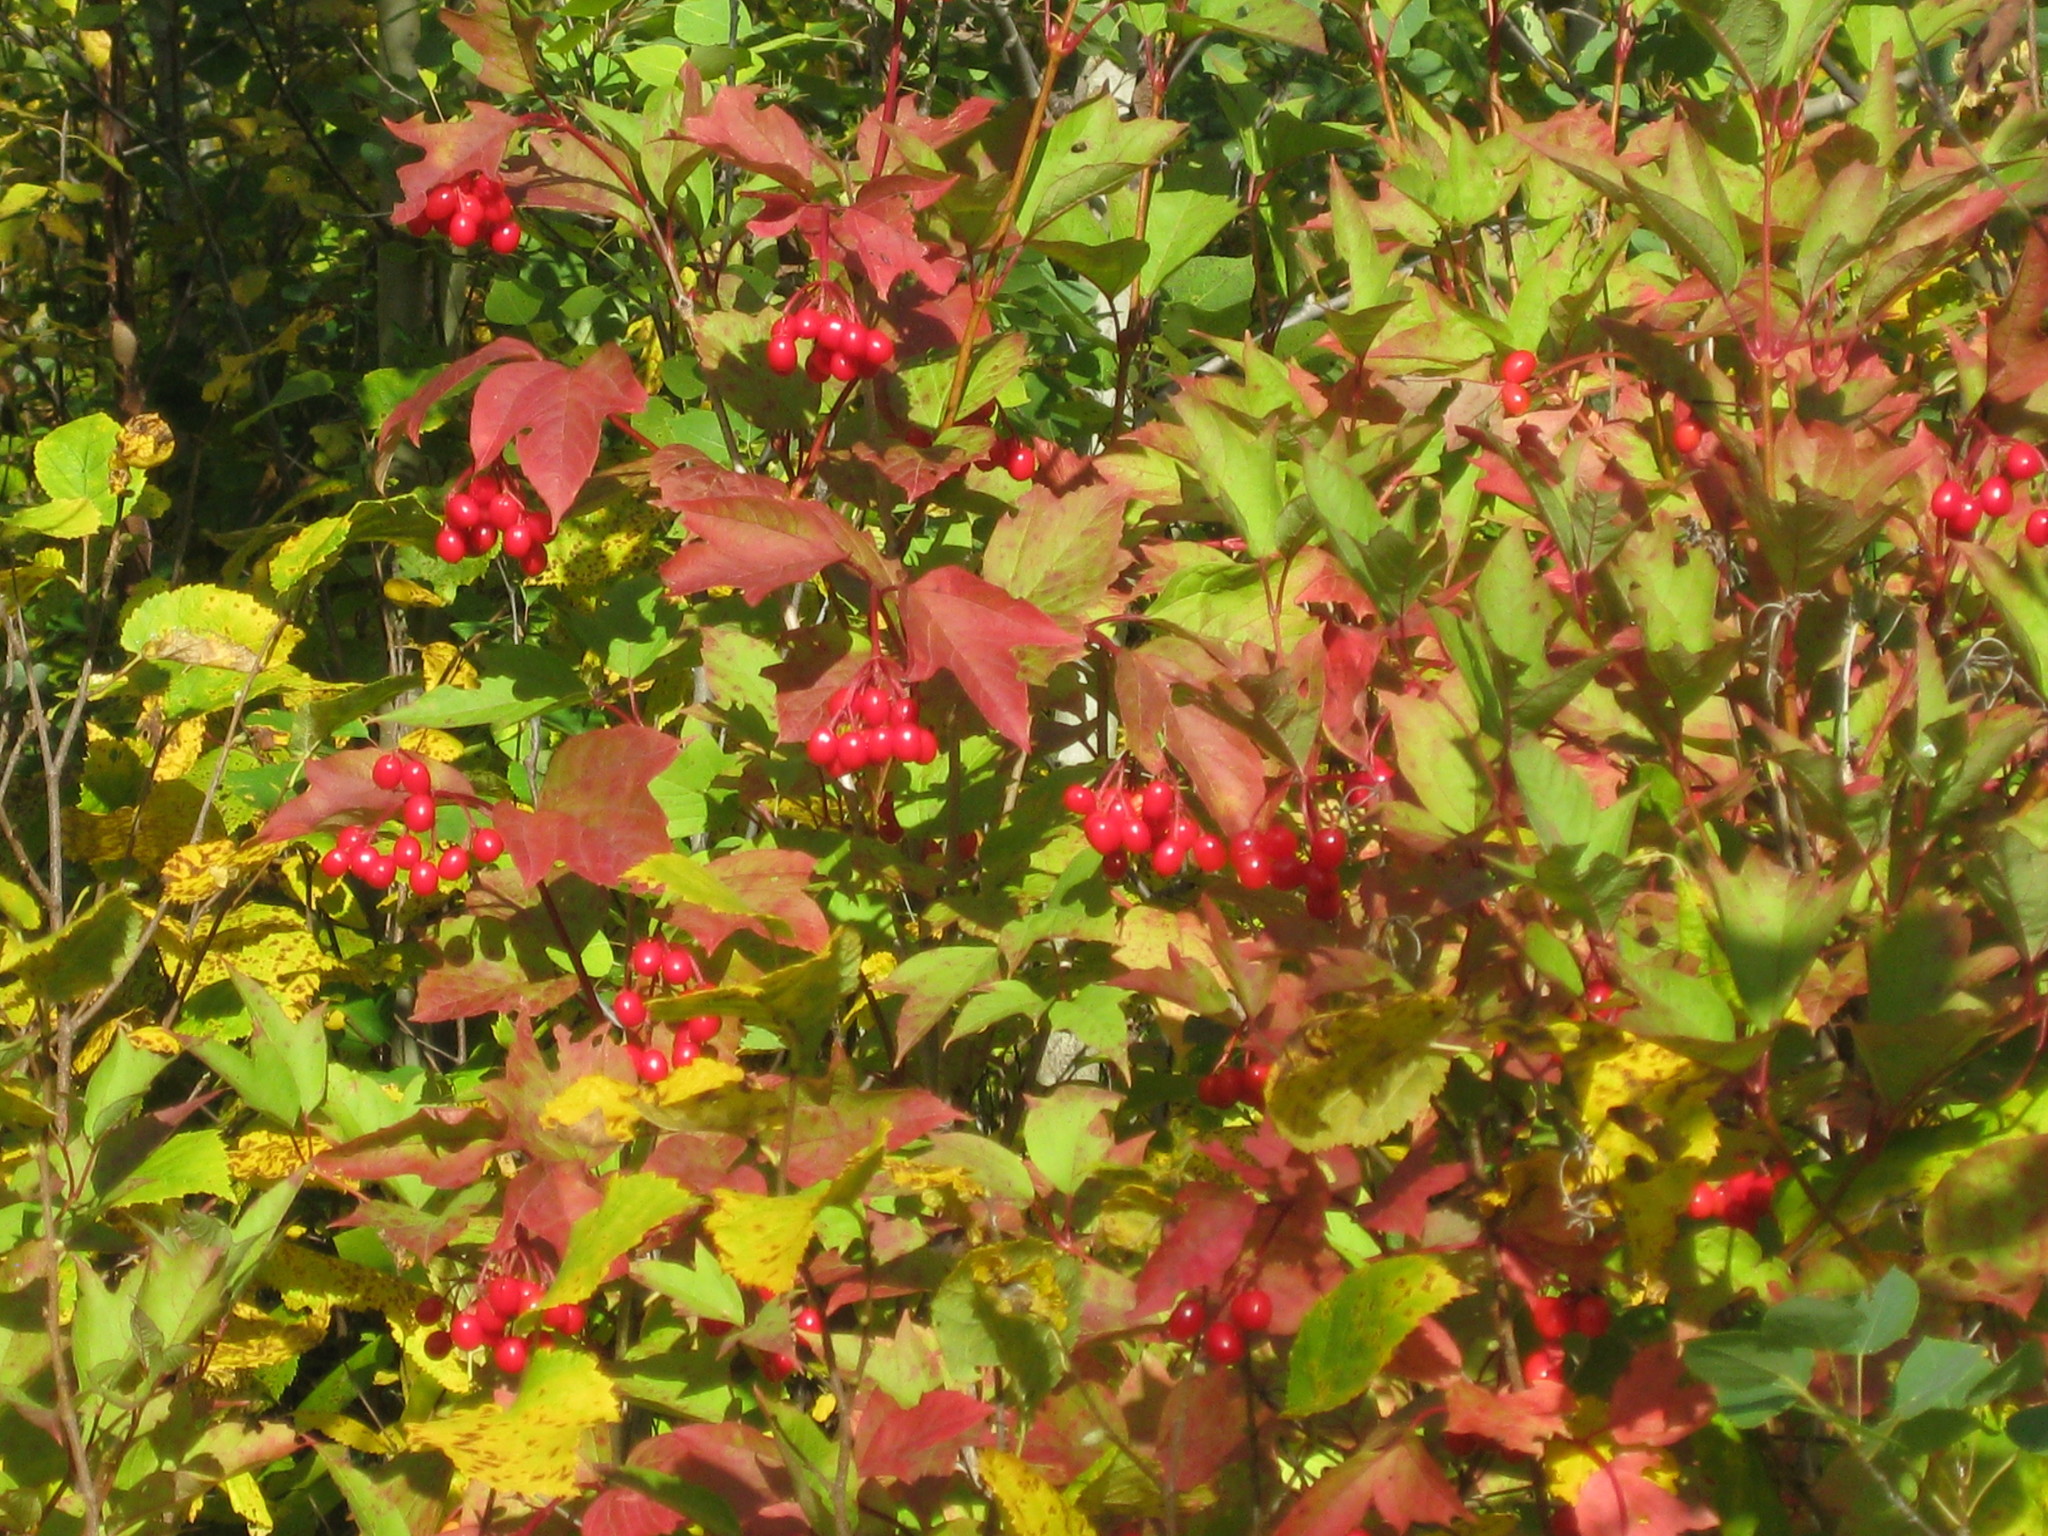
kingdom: Plantae
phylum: Tracheophyta
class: Magnoliopsida
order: Dipsacales
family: Viburnaceae
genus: Viburnum
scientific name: Viburnum opulus
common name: Guelder-rose
